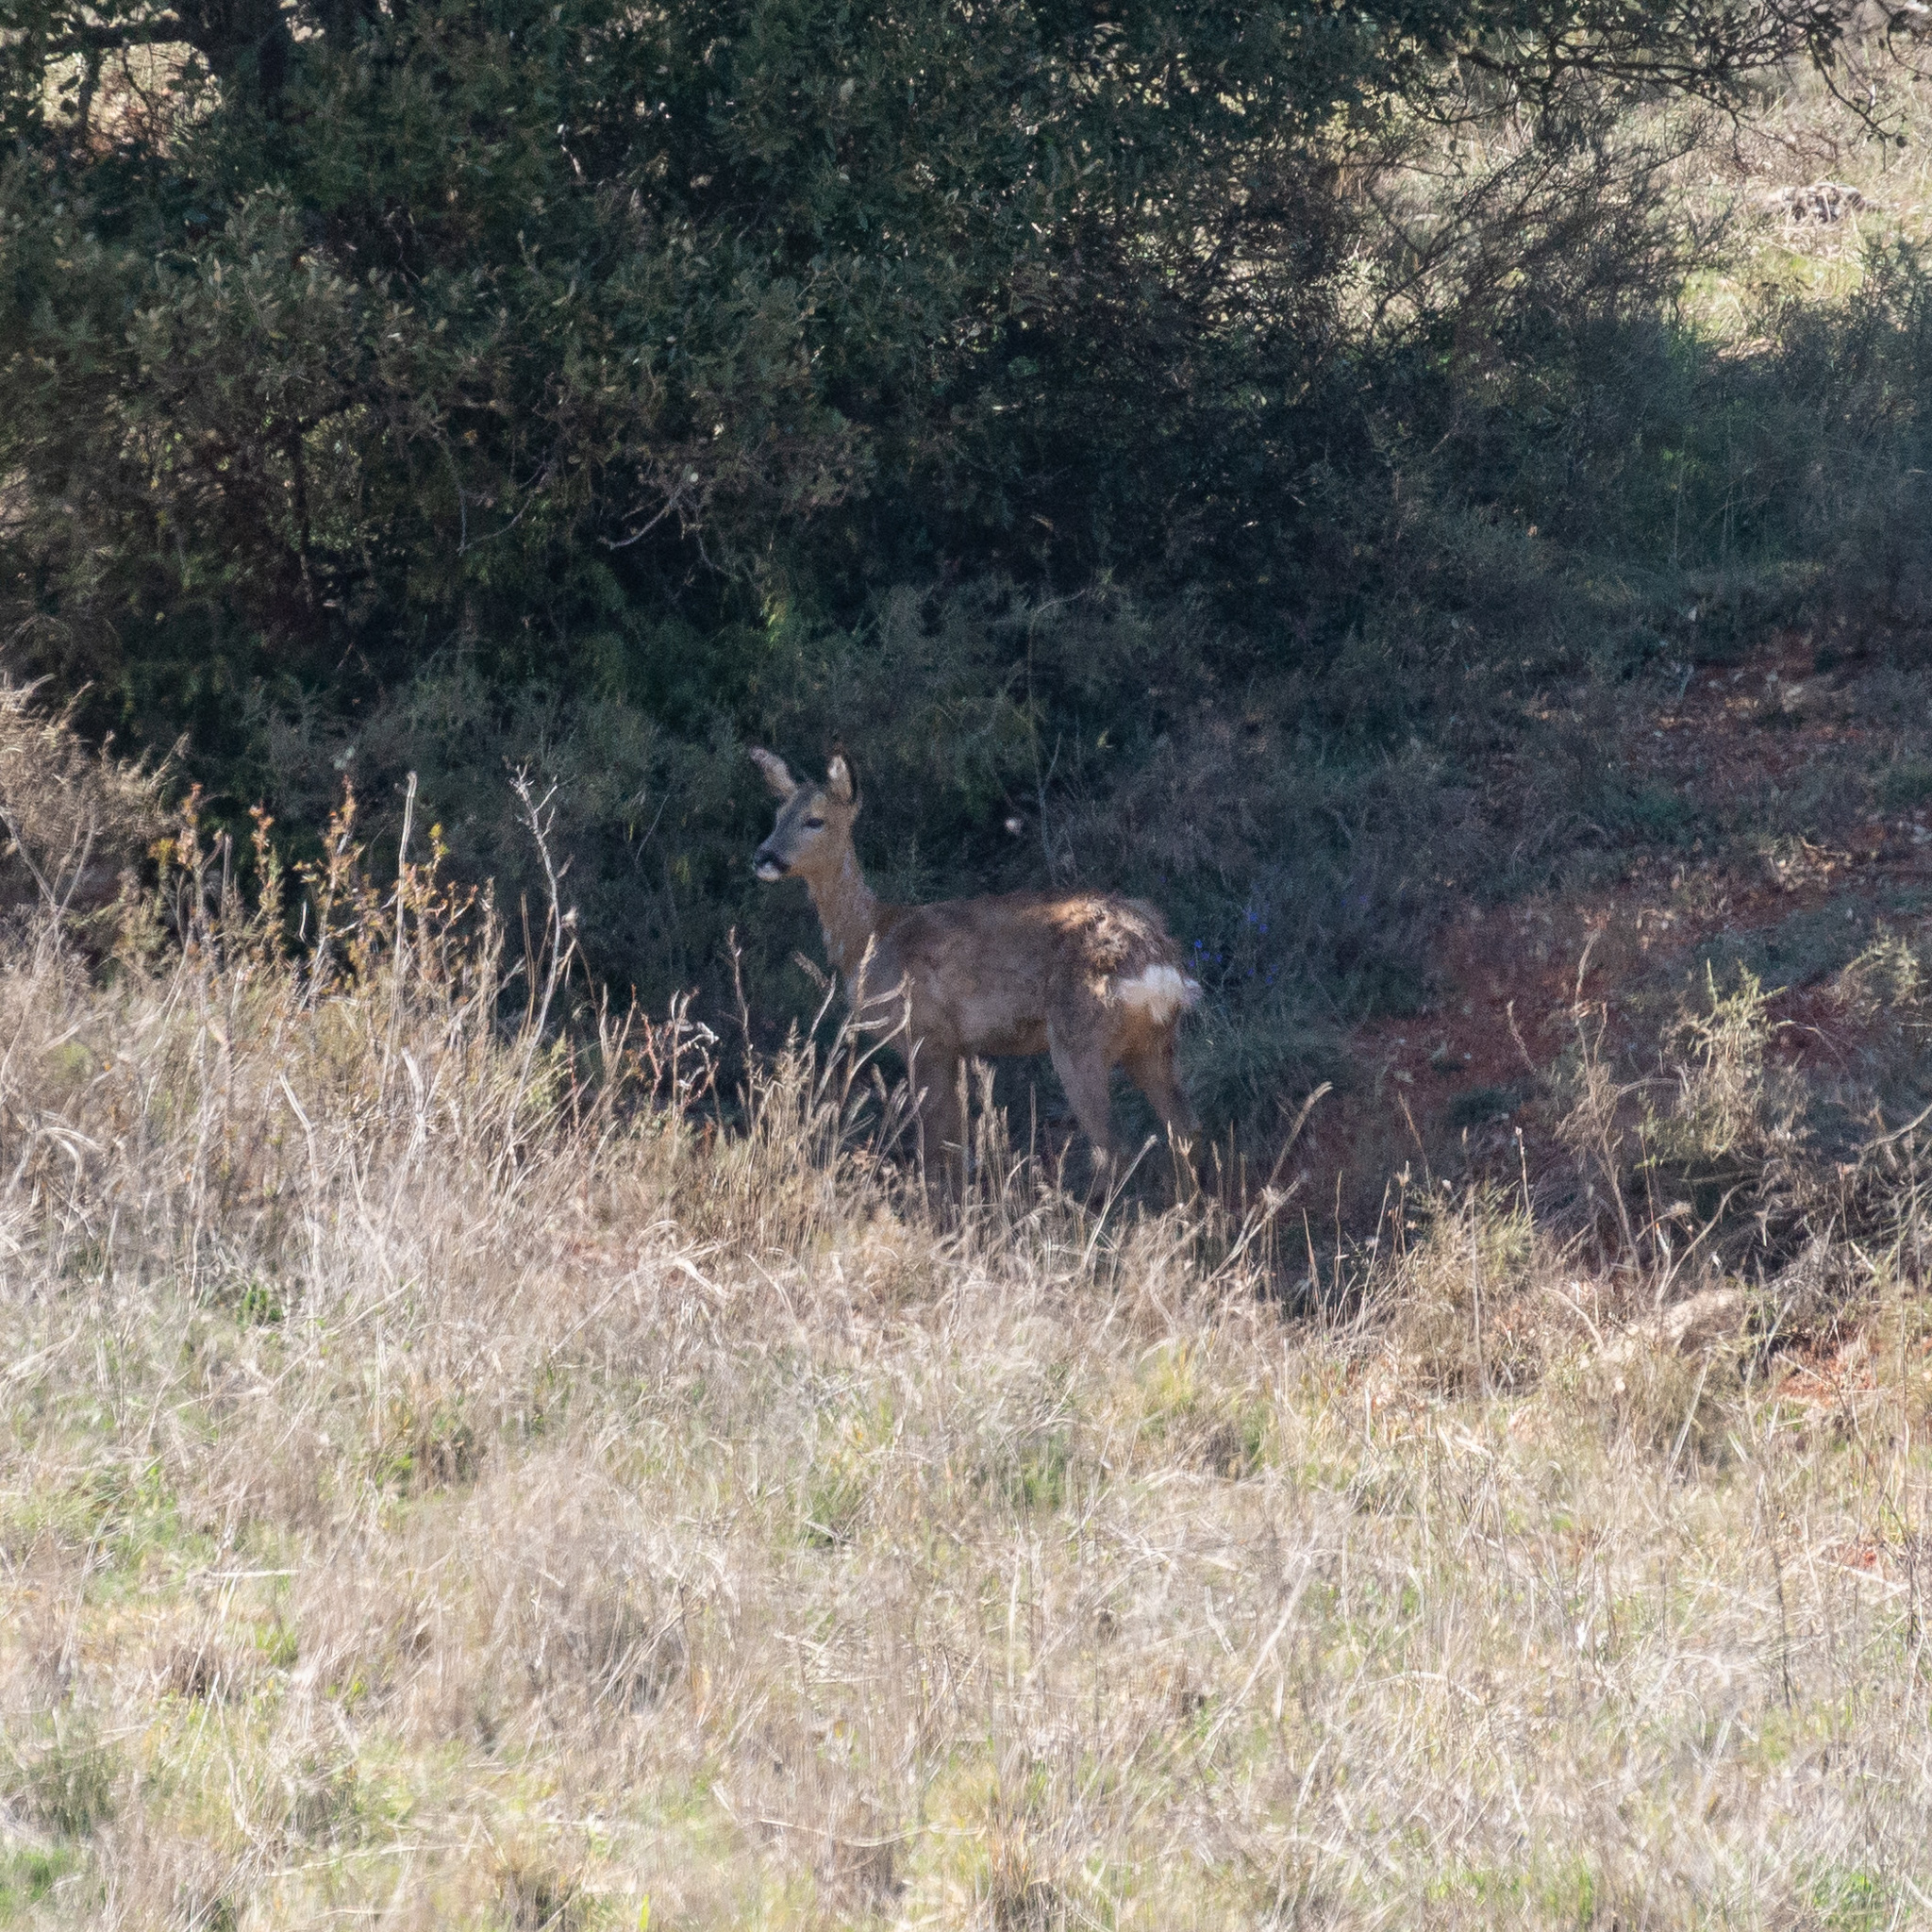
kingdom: Animalia
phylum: Chordata
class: Mammalia
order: Artiodactyla
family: Cervidae
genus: Capreolus
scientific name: Capreolus capreolus
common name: Western roe deer
